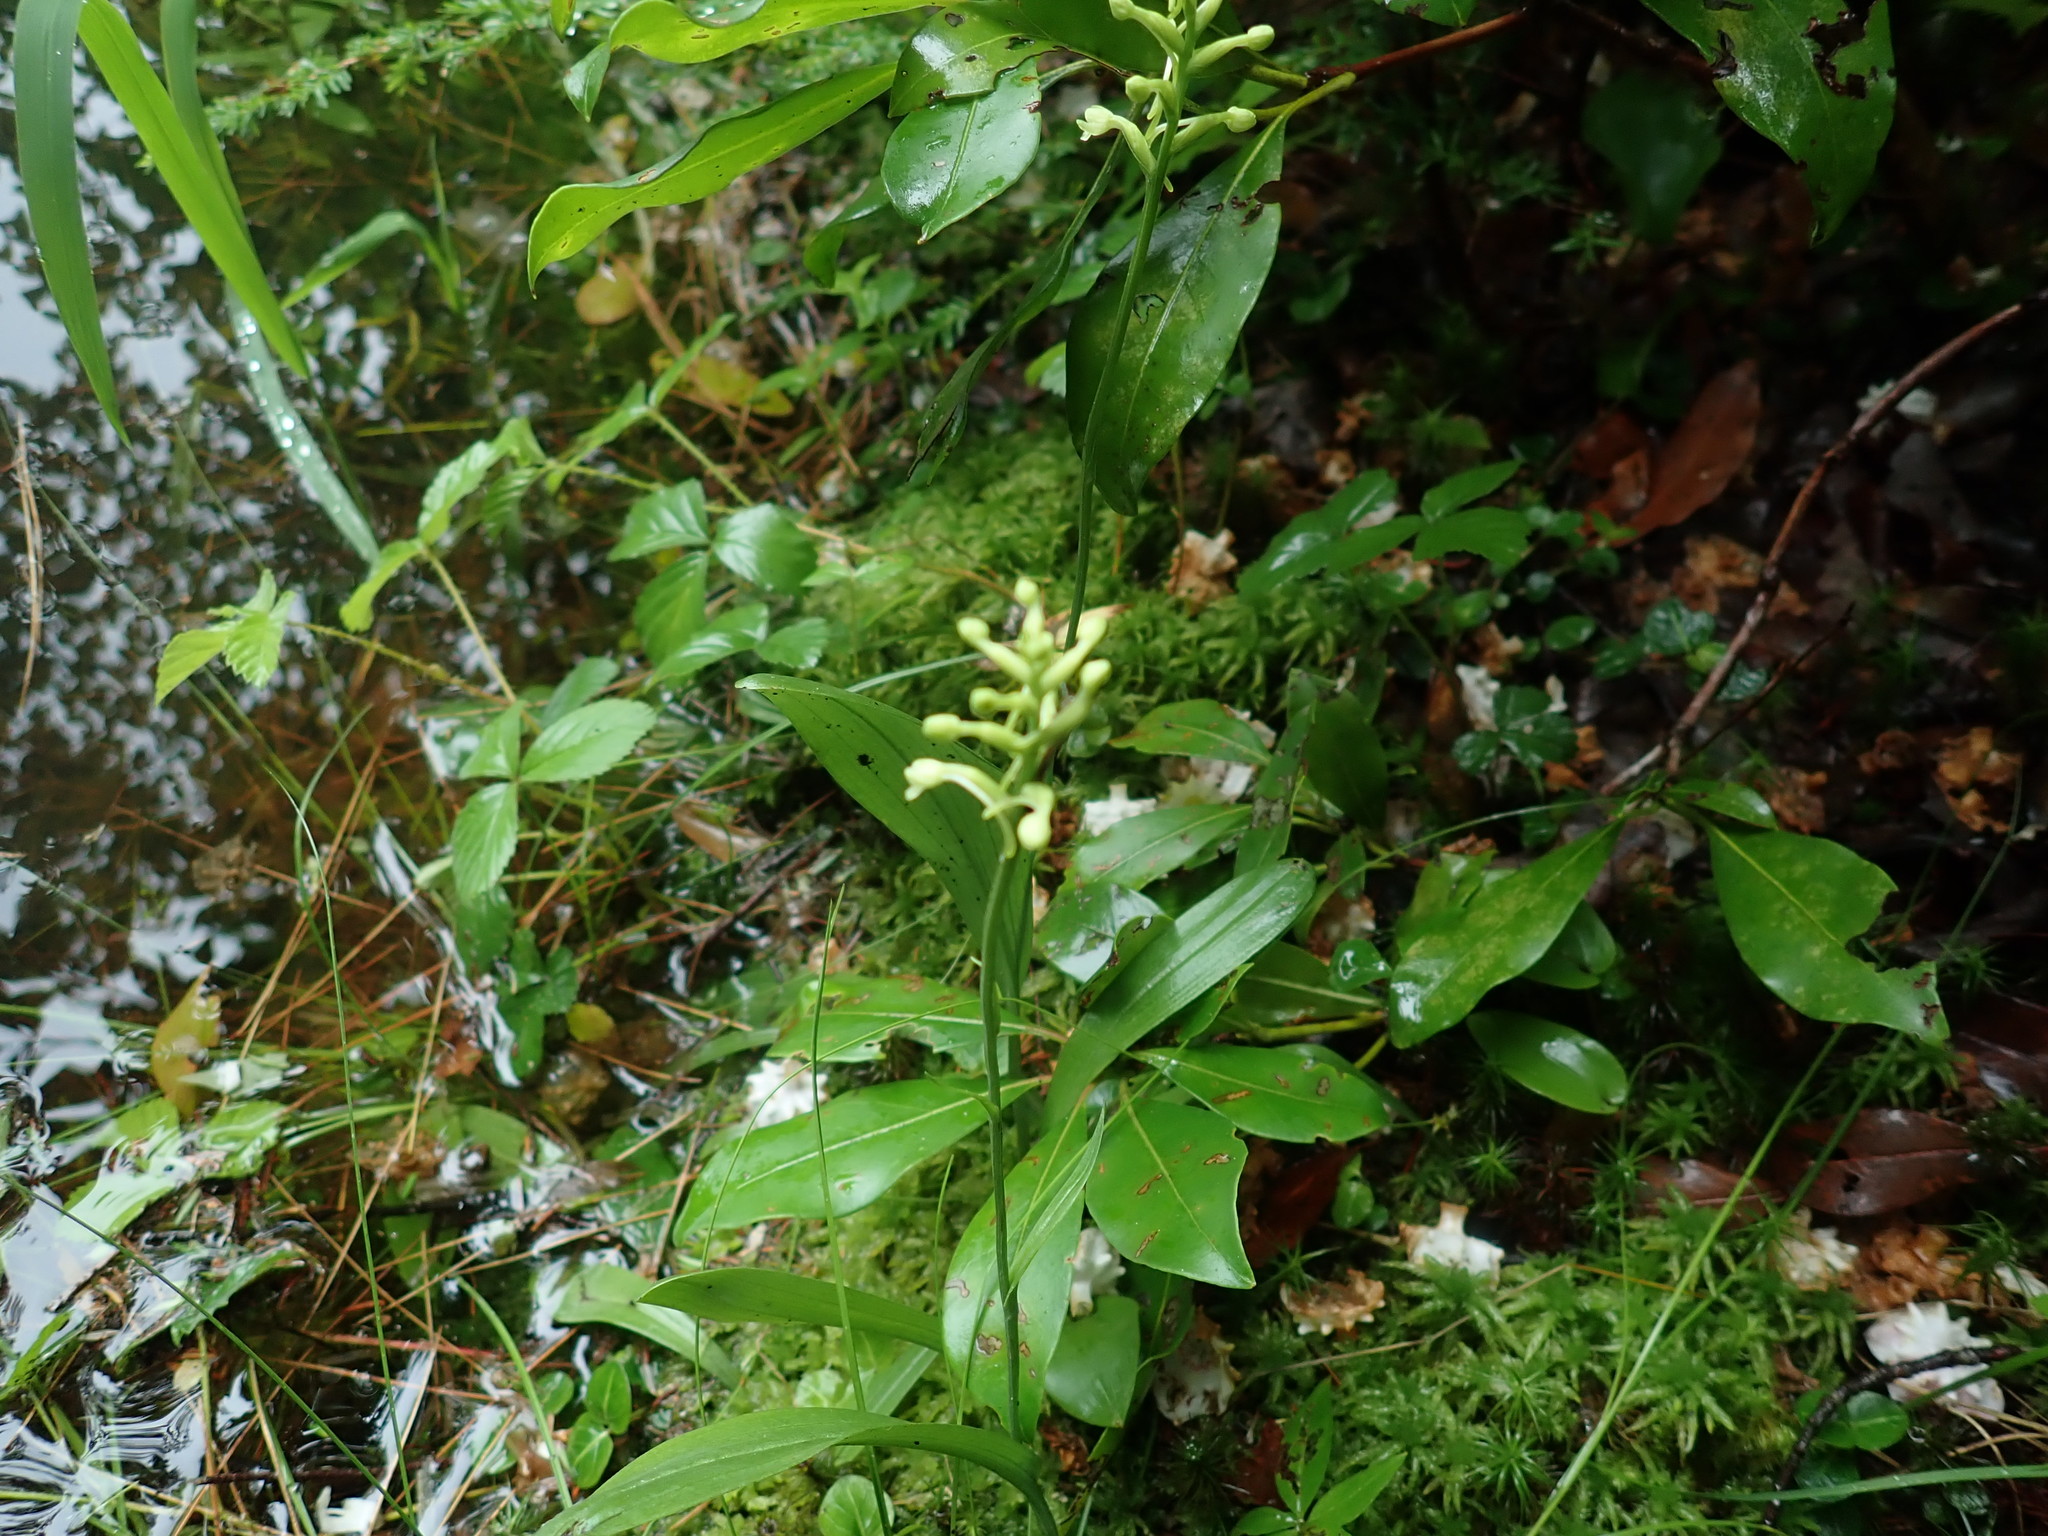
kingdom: Plantae
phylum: Tracheophyta
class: Liliopsida
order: Asparagales
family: Orchidaceae
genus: Platanthera
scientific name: Platanthera clavellata
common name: Club-spur orchid
